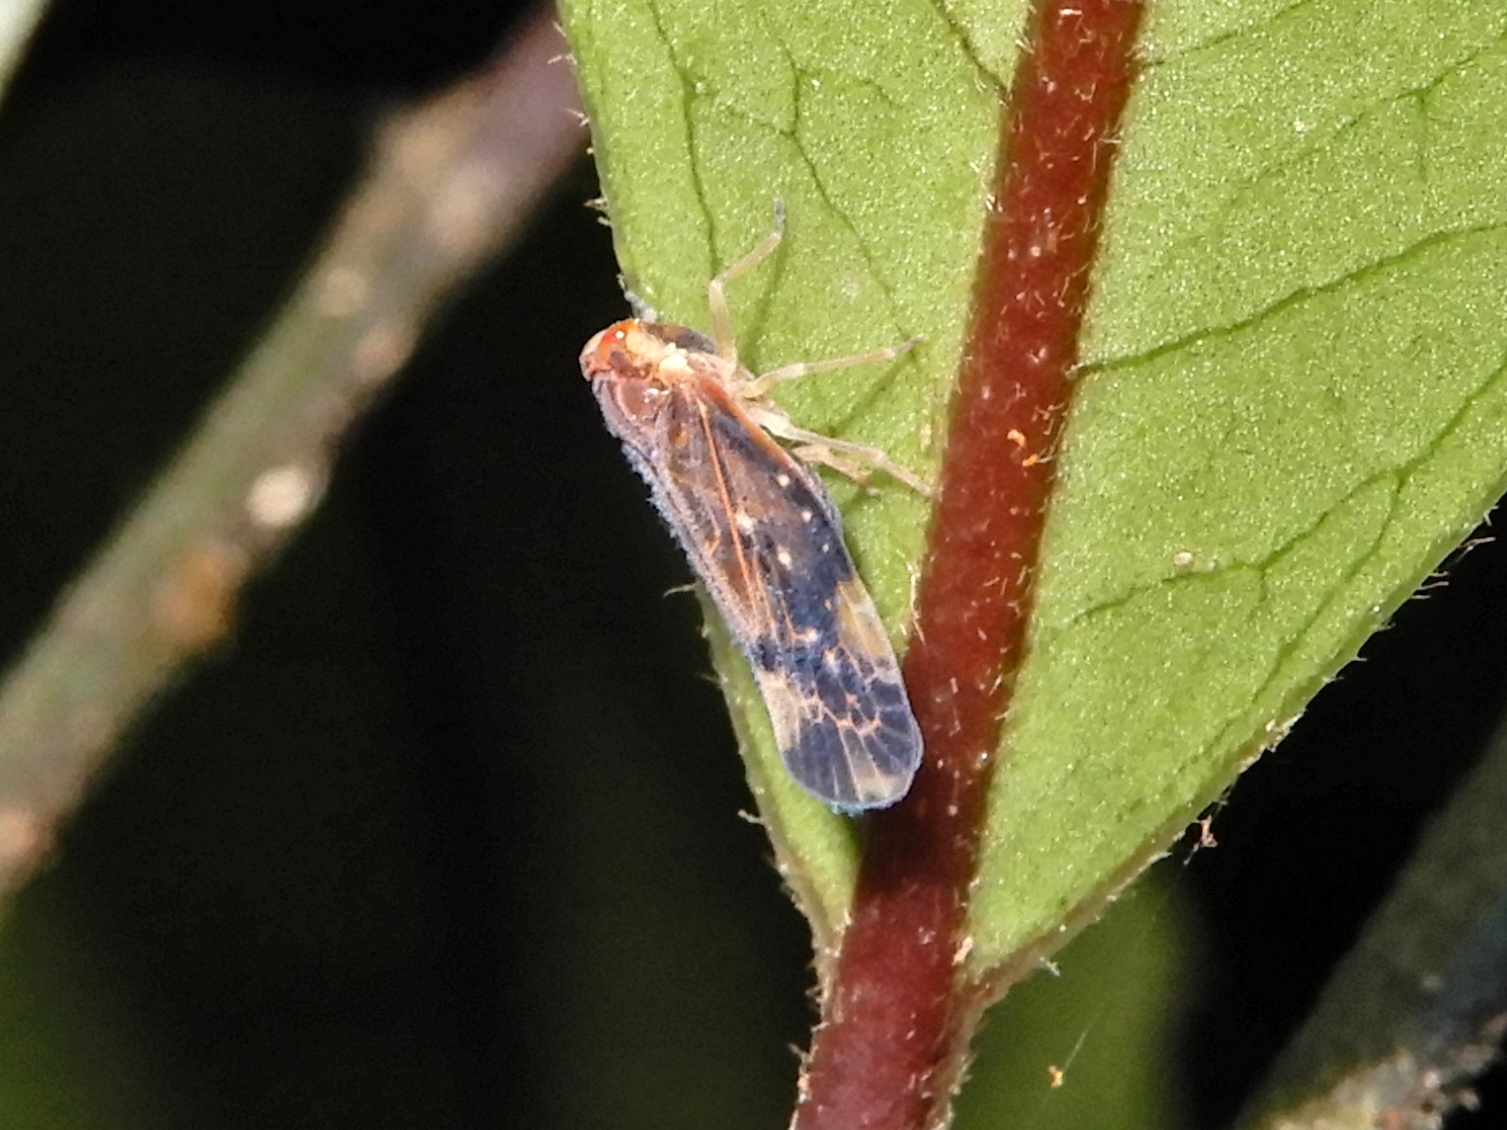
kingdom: Animalia
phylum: Arthropoda
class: Insecta
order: Hemiptera
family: Derbidae
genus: Eocenchrea
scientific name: Eocenchrea maorica
